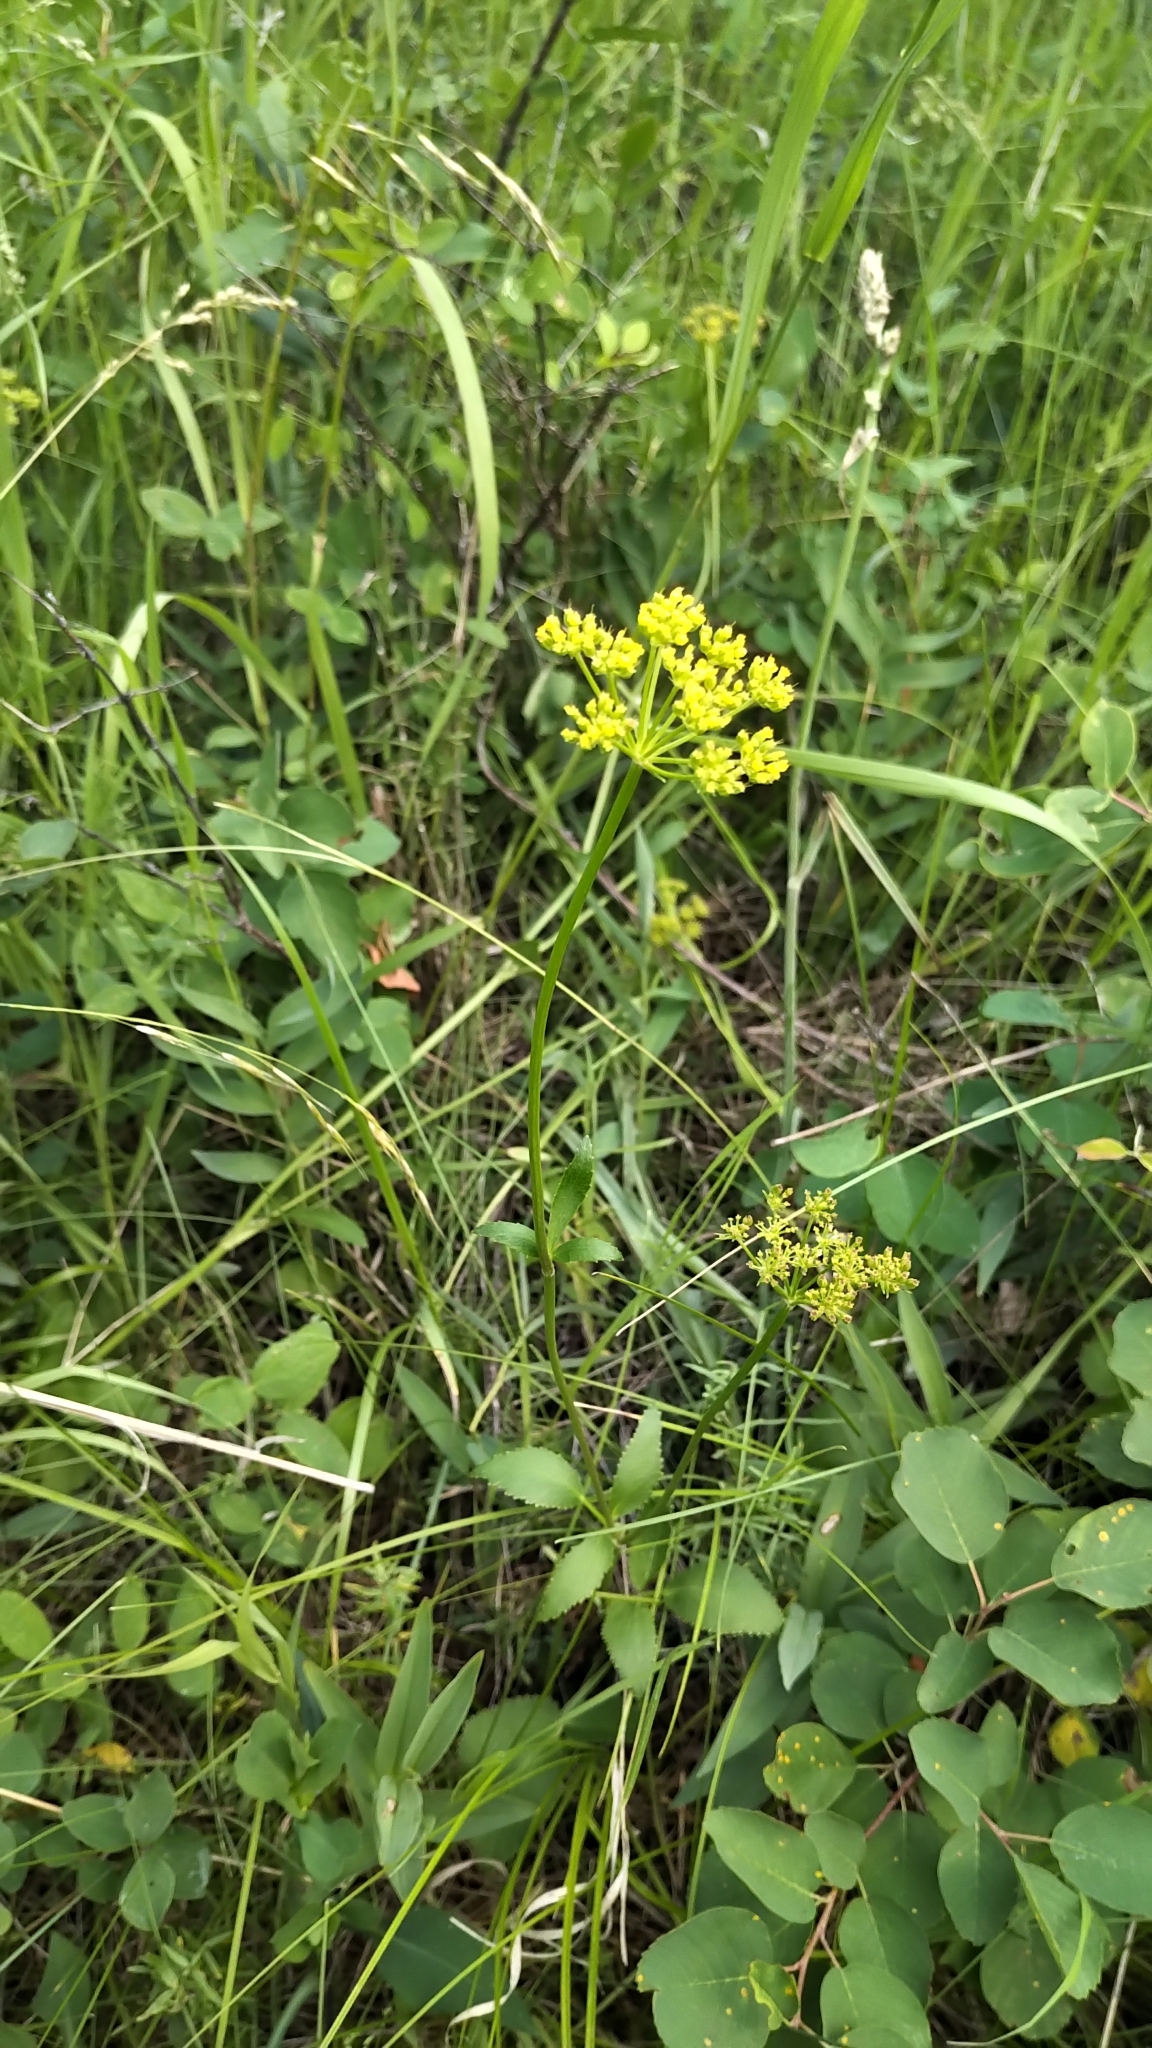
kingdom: Plantae
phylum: Tracheophyta
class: Magnoliopsida
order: Apiales
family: Apiaceae
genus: Zizia
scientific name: Zizia aptera
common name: Heart-leaved alexanders
